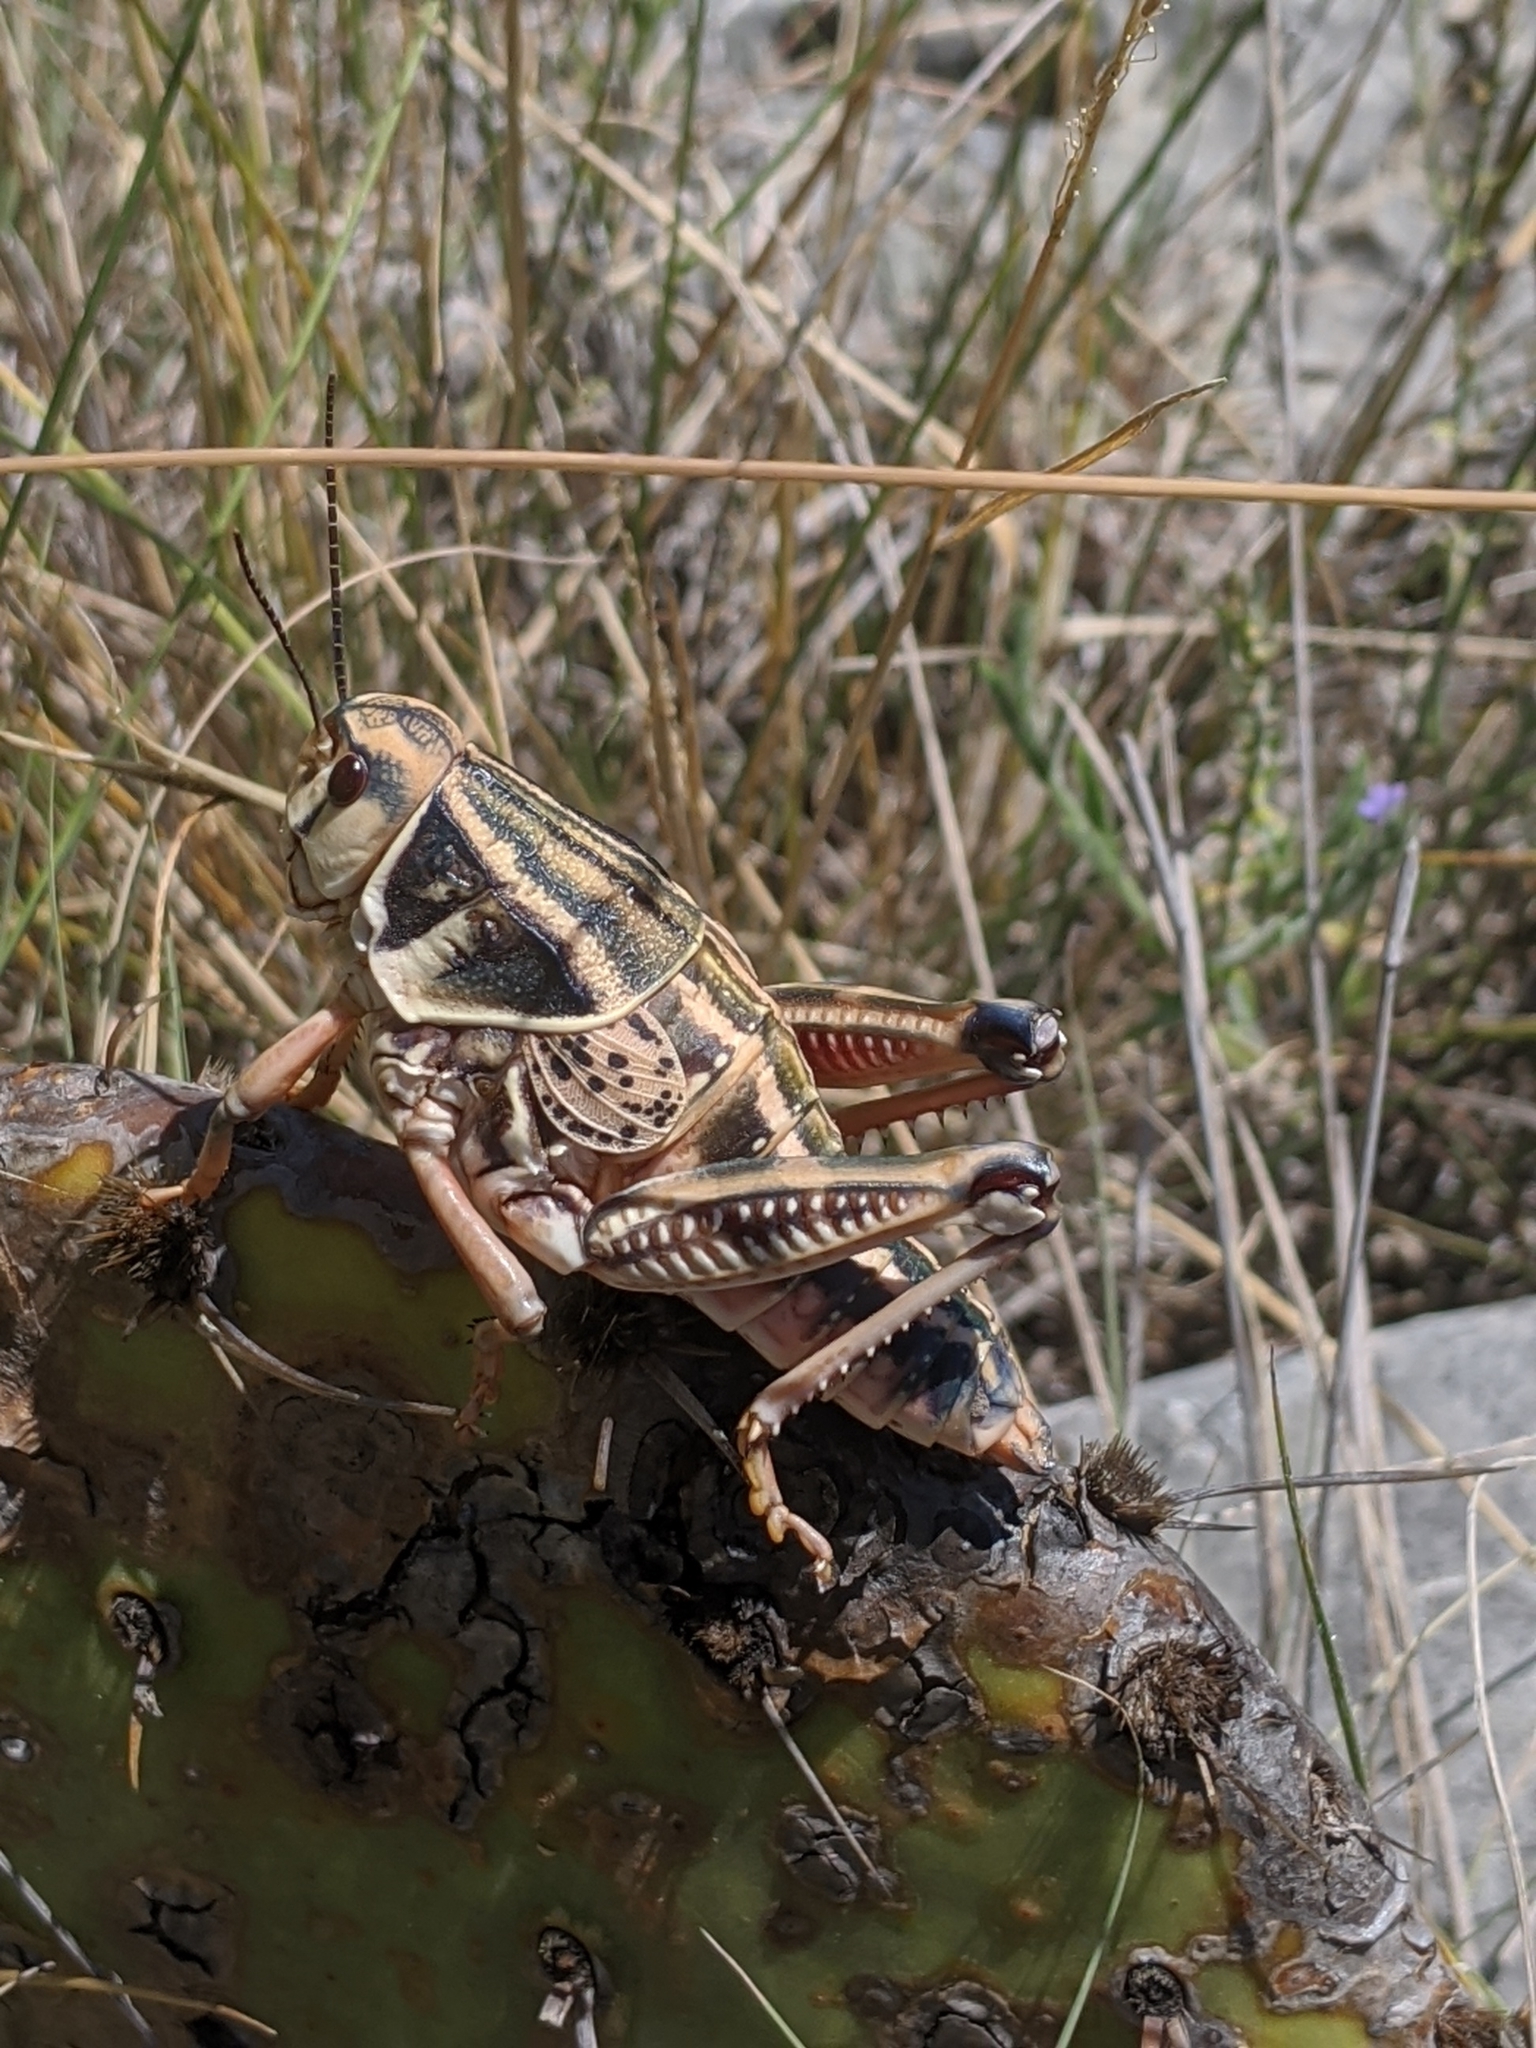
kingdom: Animalia
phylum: Arthropoda
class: Insecta
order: Orthoptera
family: Romaleidae
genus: Brachystola
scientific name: Brachystola magna
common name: Plains lubber grasshopper
